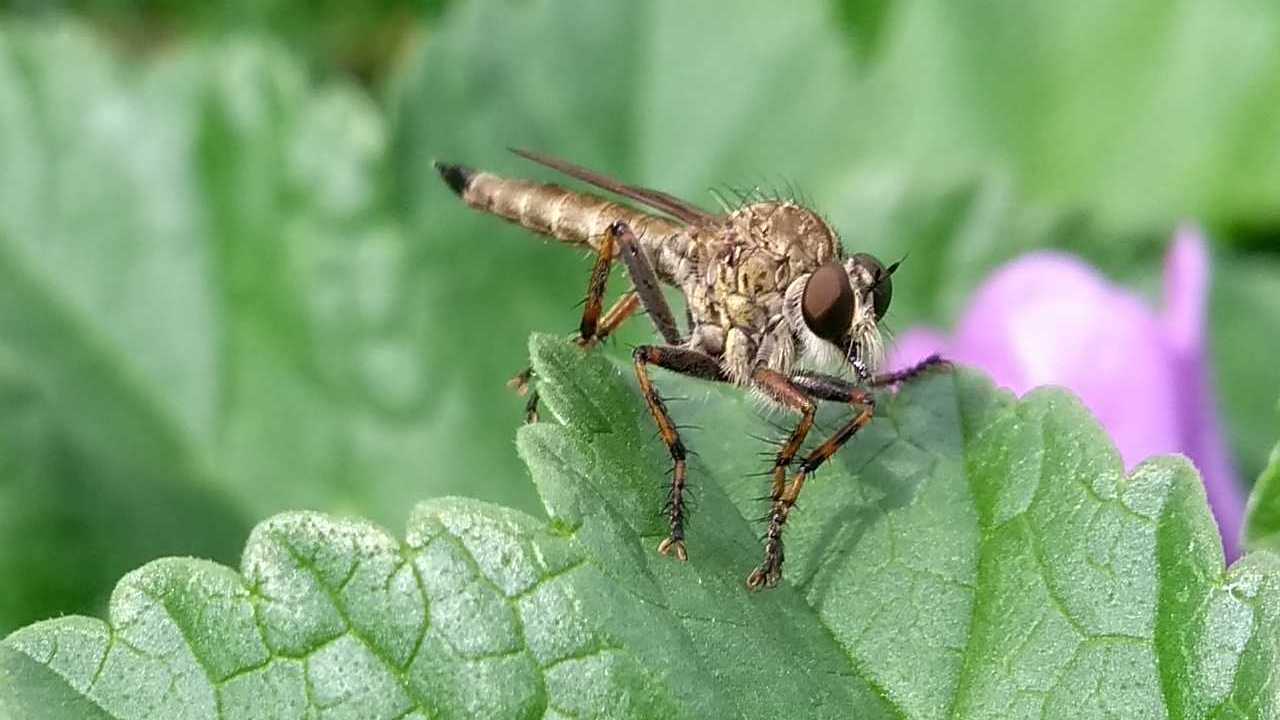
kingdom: Animalia
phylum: Arthropoda
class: Insecta
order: Diptera
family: Asilidae
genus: Epitriptus
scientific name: Epitriptus cingulatus
